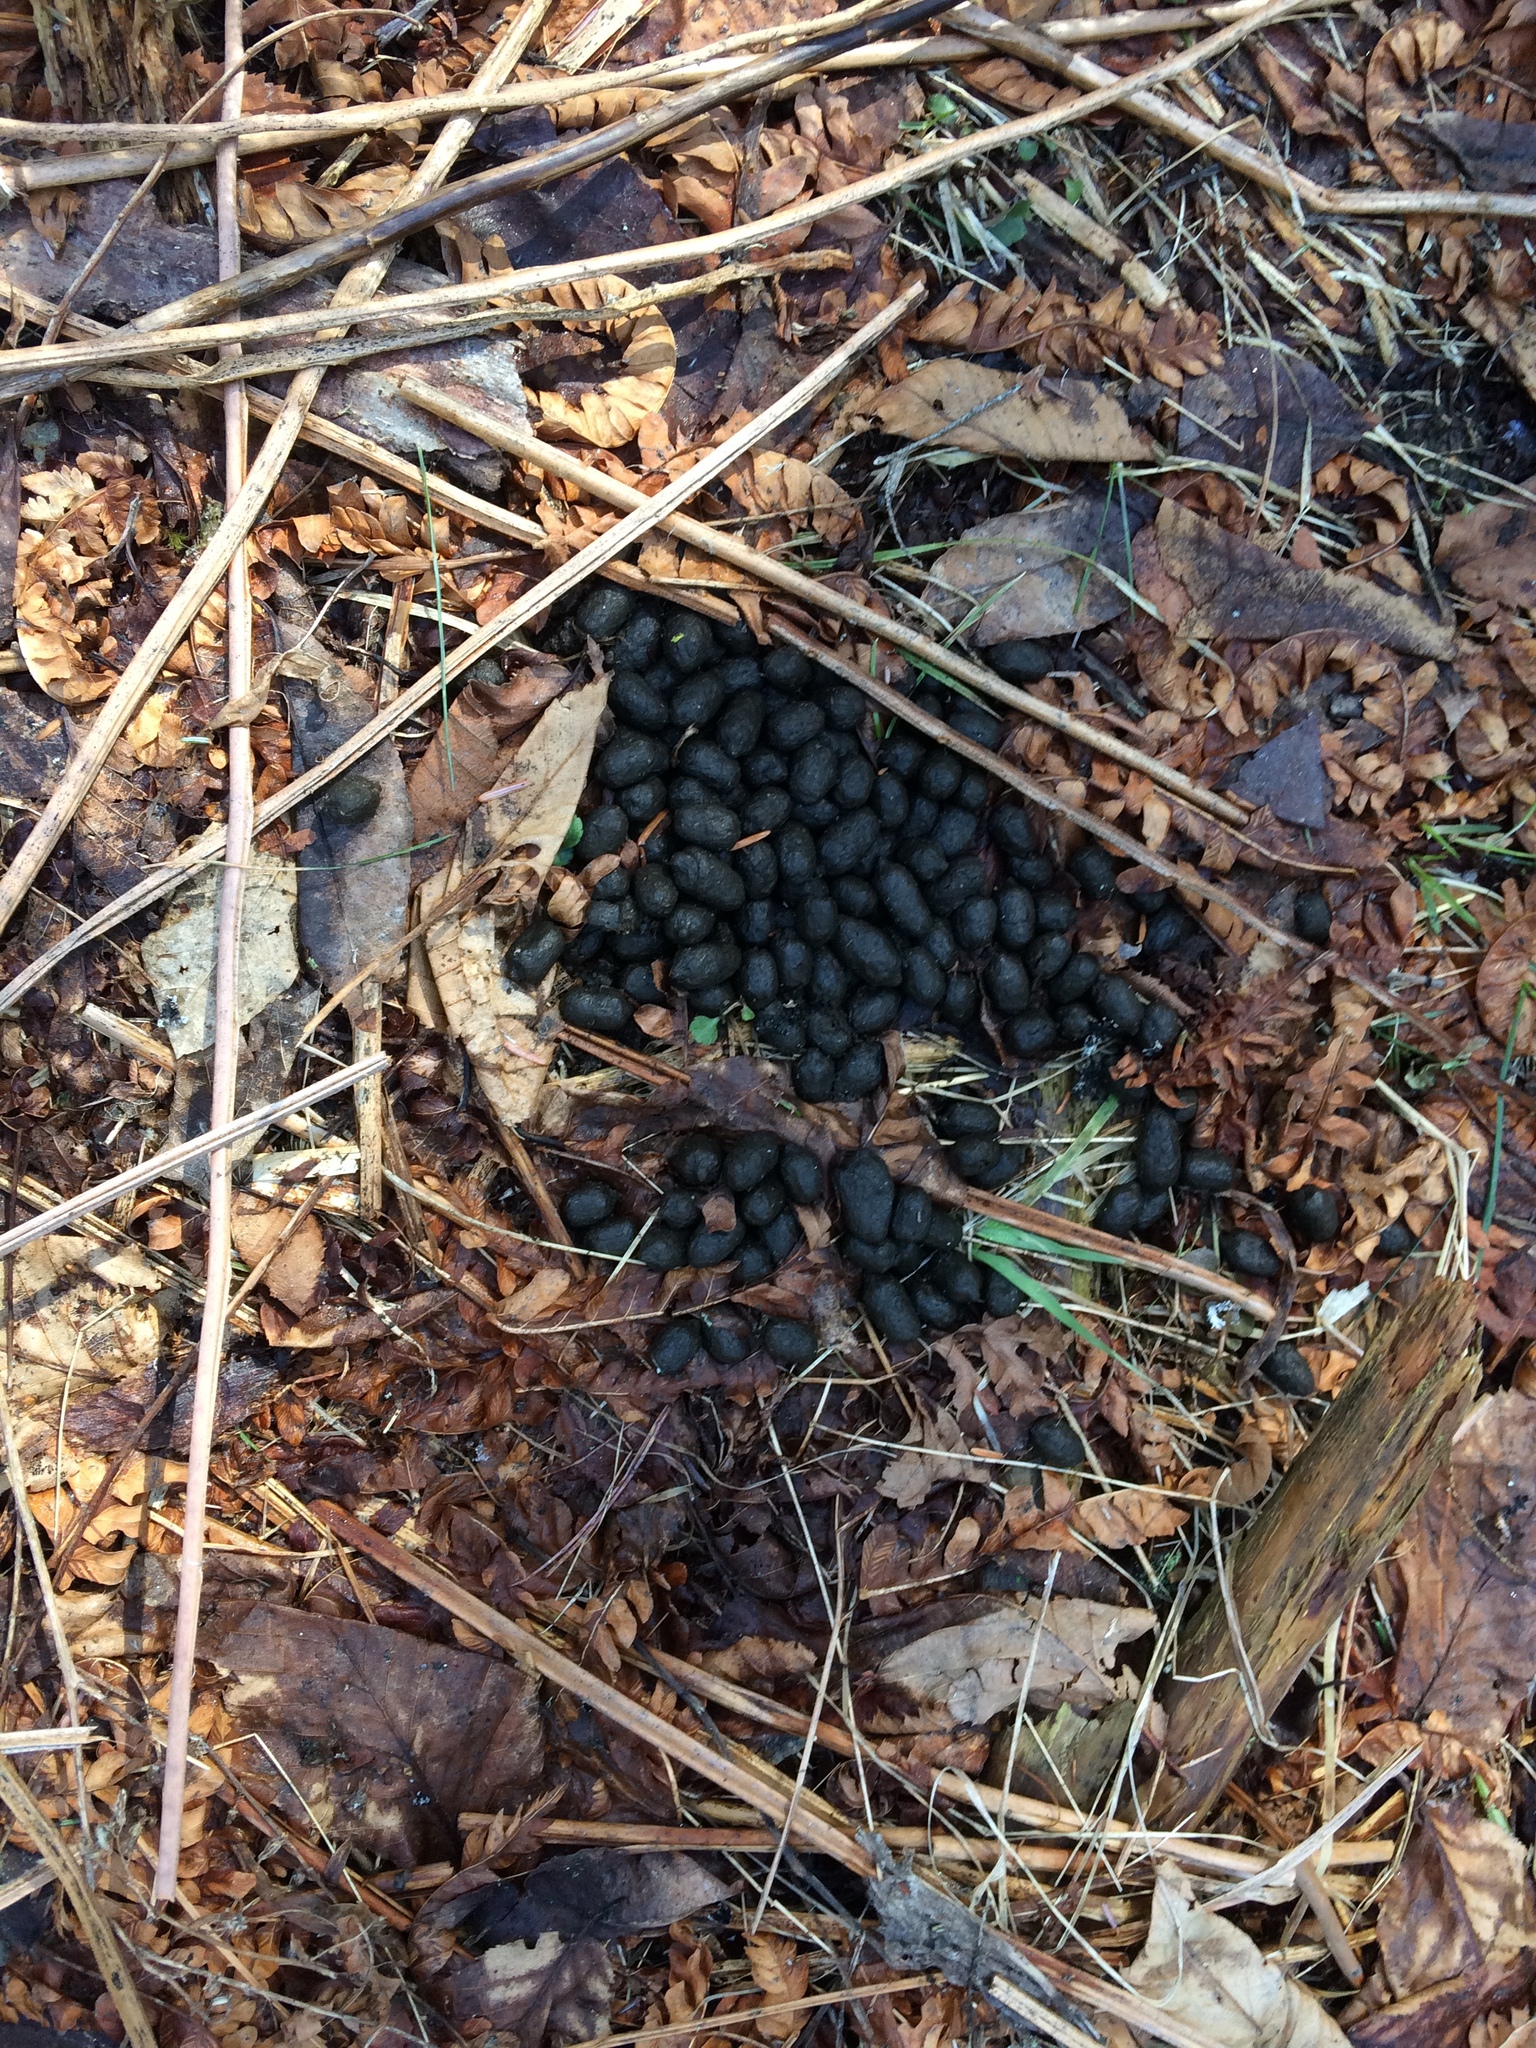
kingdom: Animalia
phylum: Chordata
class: Mammalia
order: Artiodactyla
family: Cervidae
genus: Odocoileus
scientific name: Odocoileus virginianus
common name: White-tailed deer
